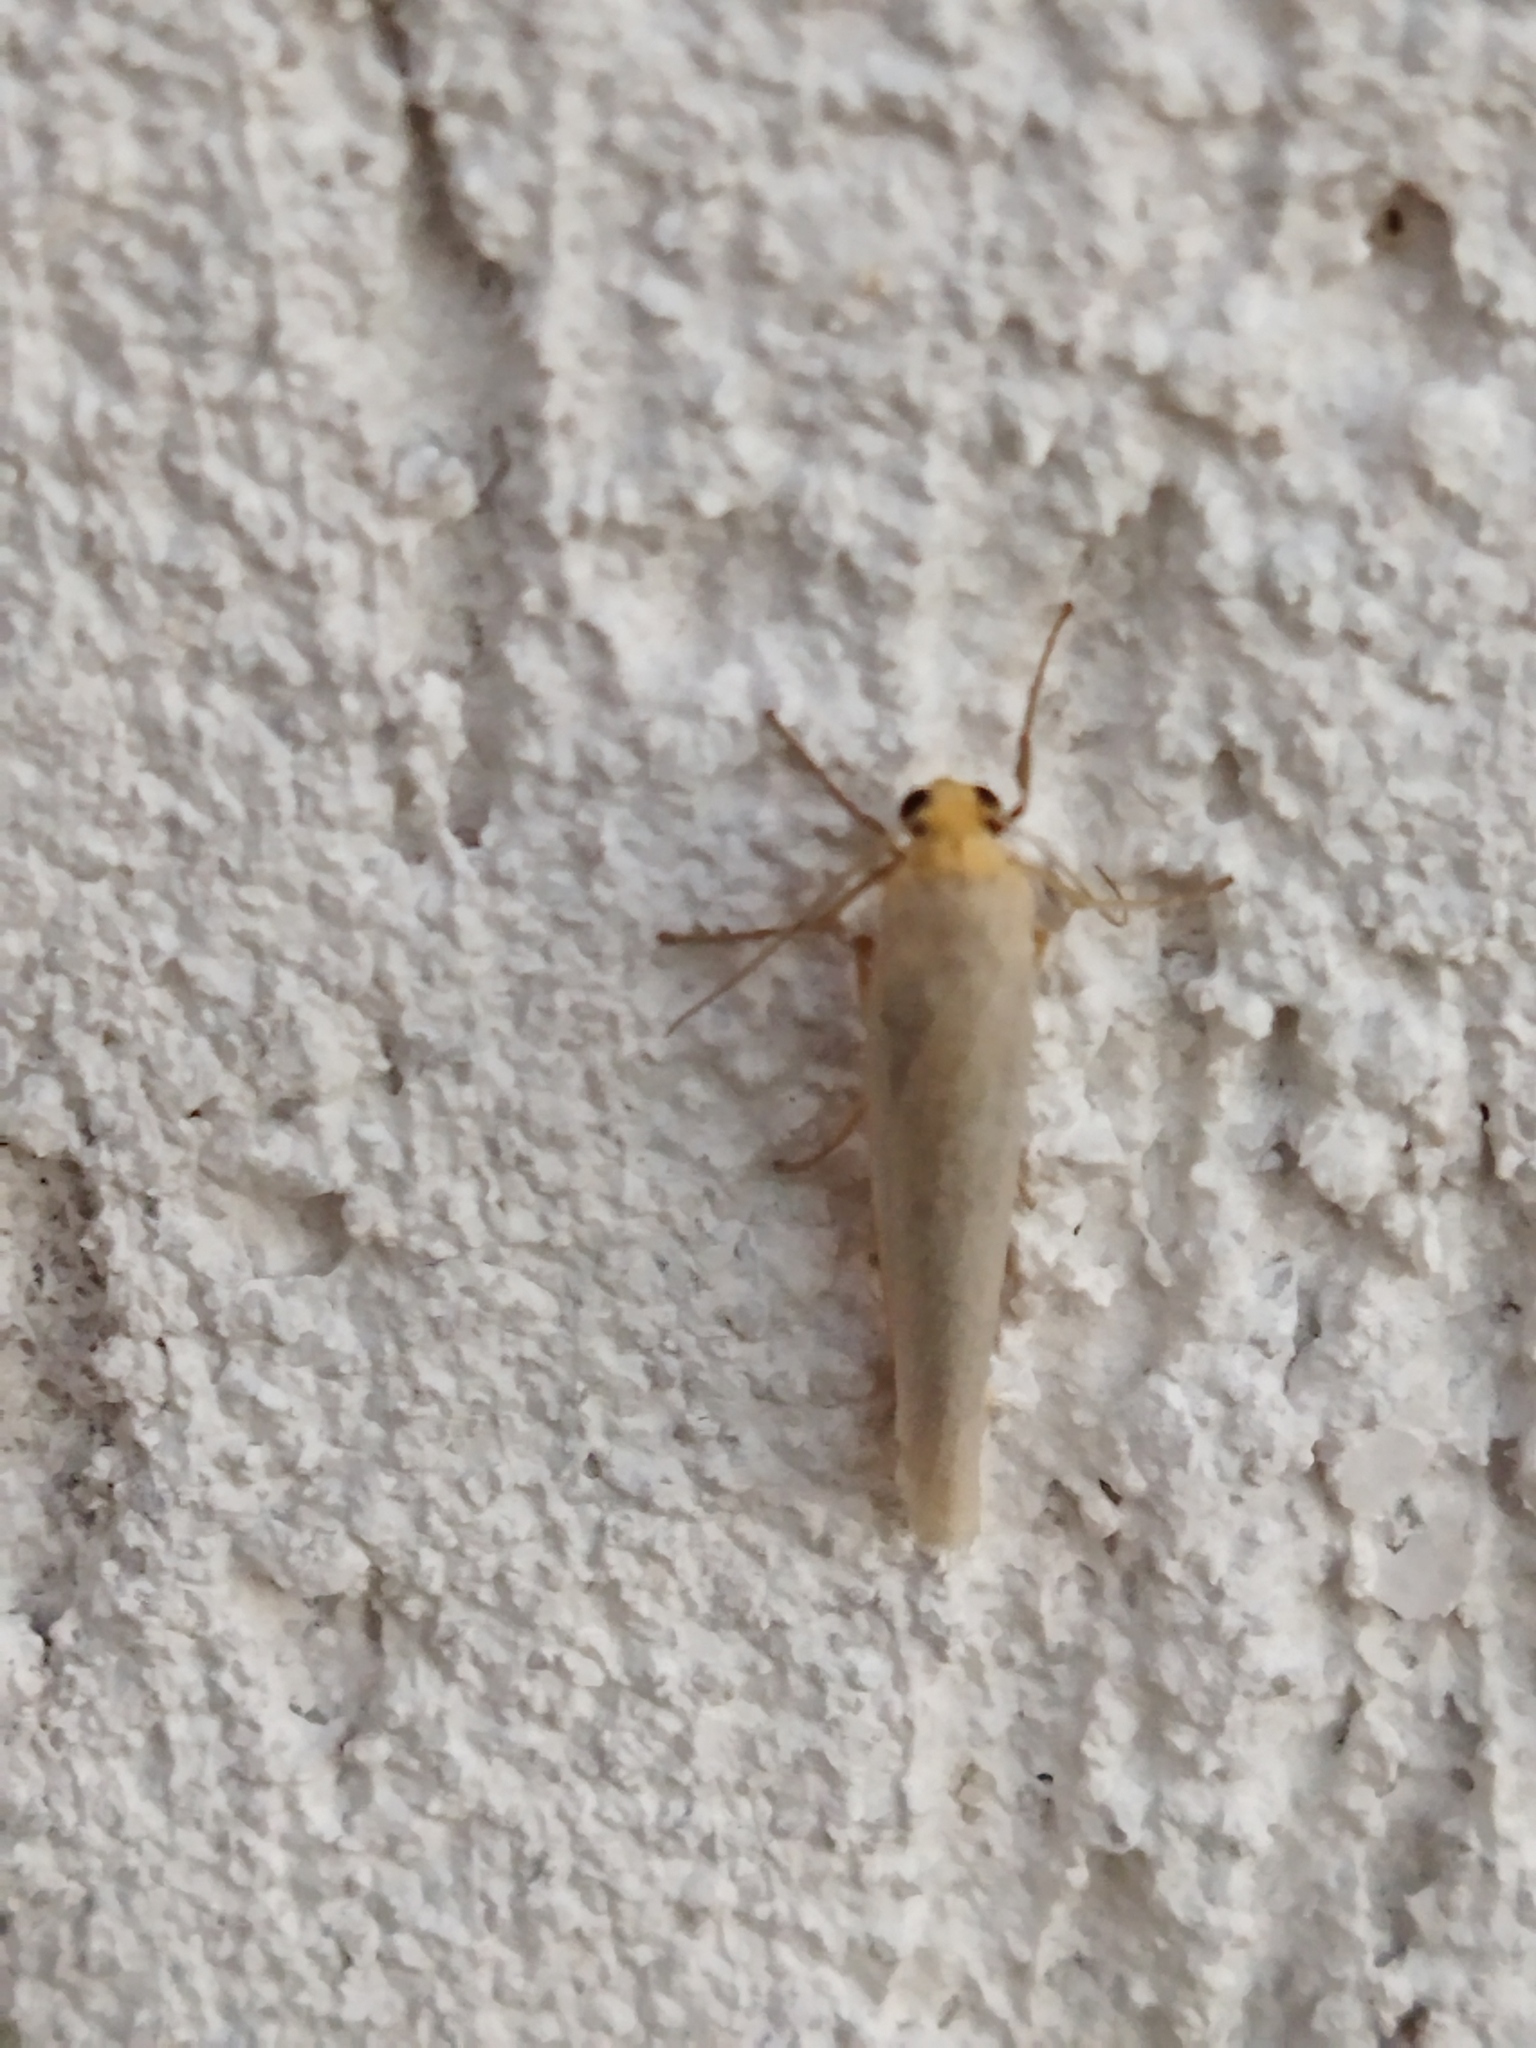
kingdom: Animalia
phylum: Arthropoda
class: Insecta
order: Lepidoptera
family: Erebidae
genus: Eilema
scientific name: Eilema caniola
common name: Hoary footman
